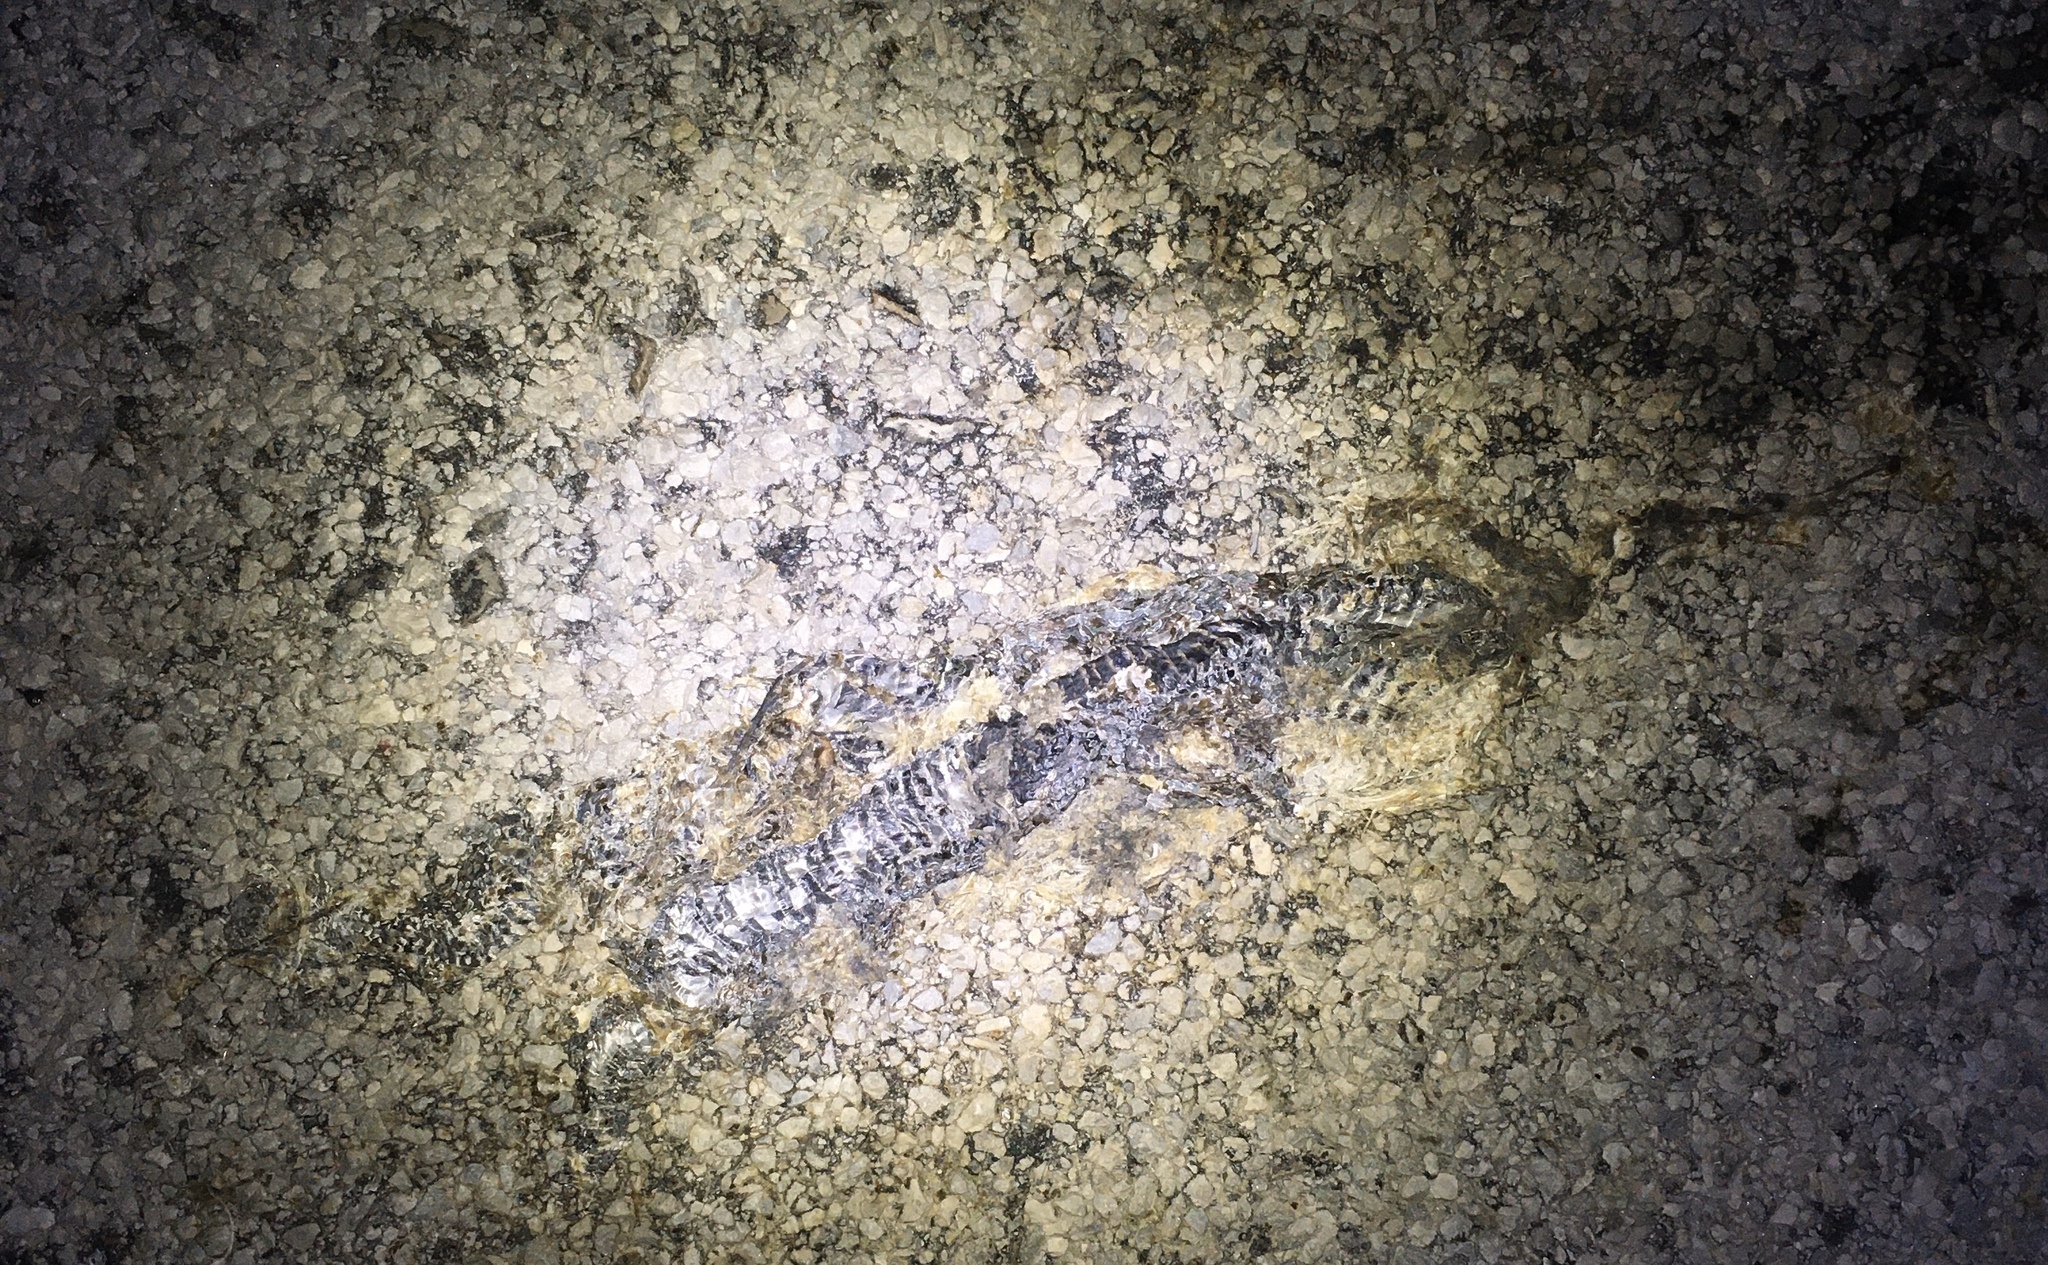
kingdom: Animalia
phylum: Chordata
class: Squamata
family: Viperidae
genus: Sistrurus
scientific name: Sistrurus catenatus
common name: Massasauga
